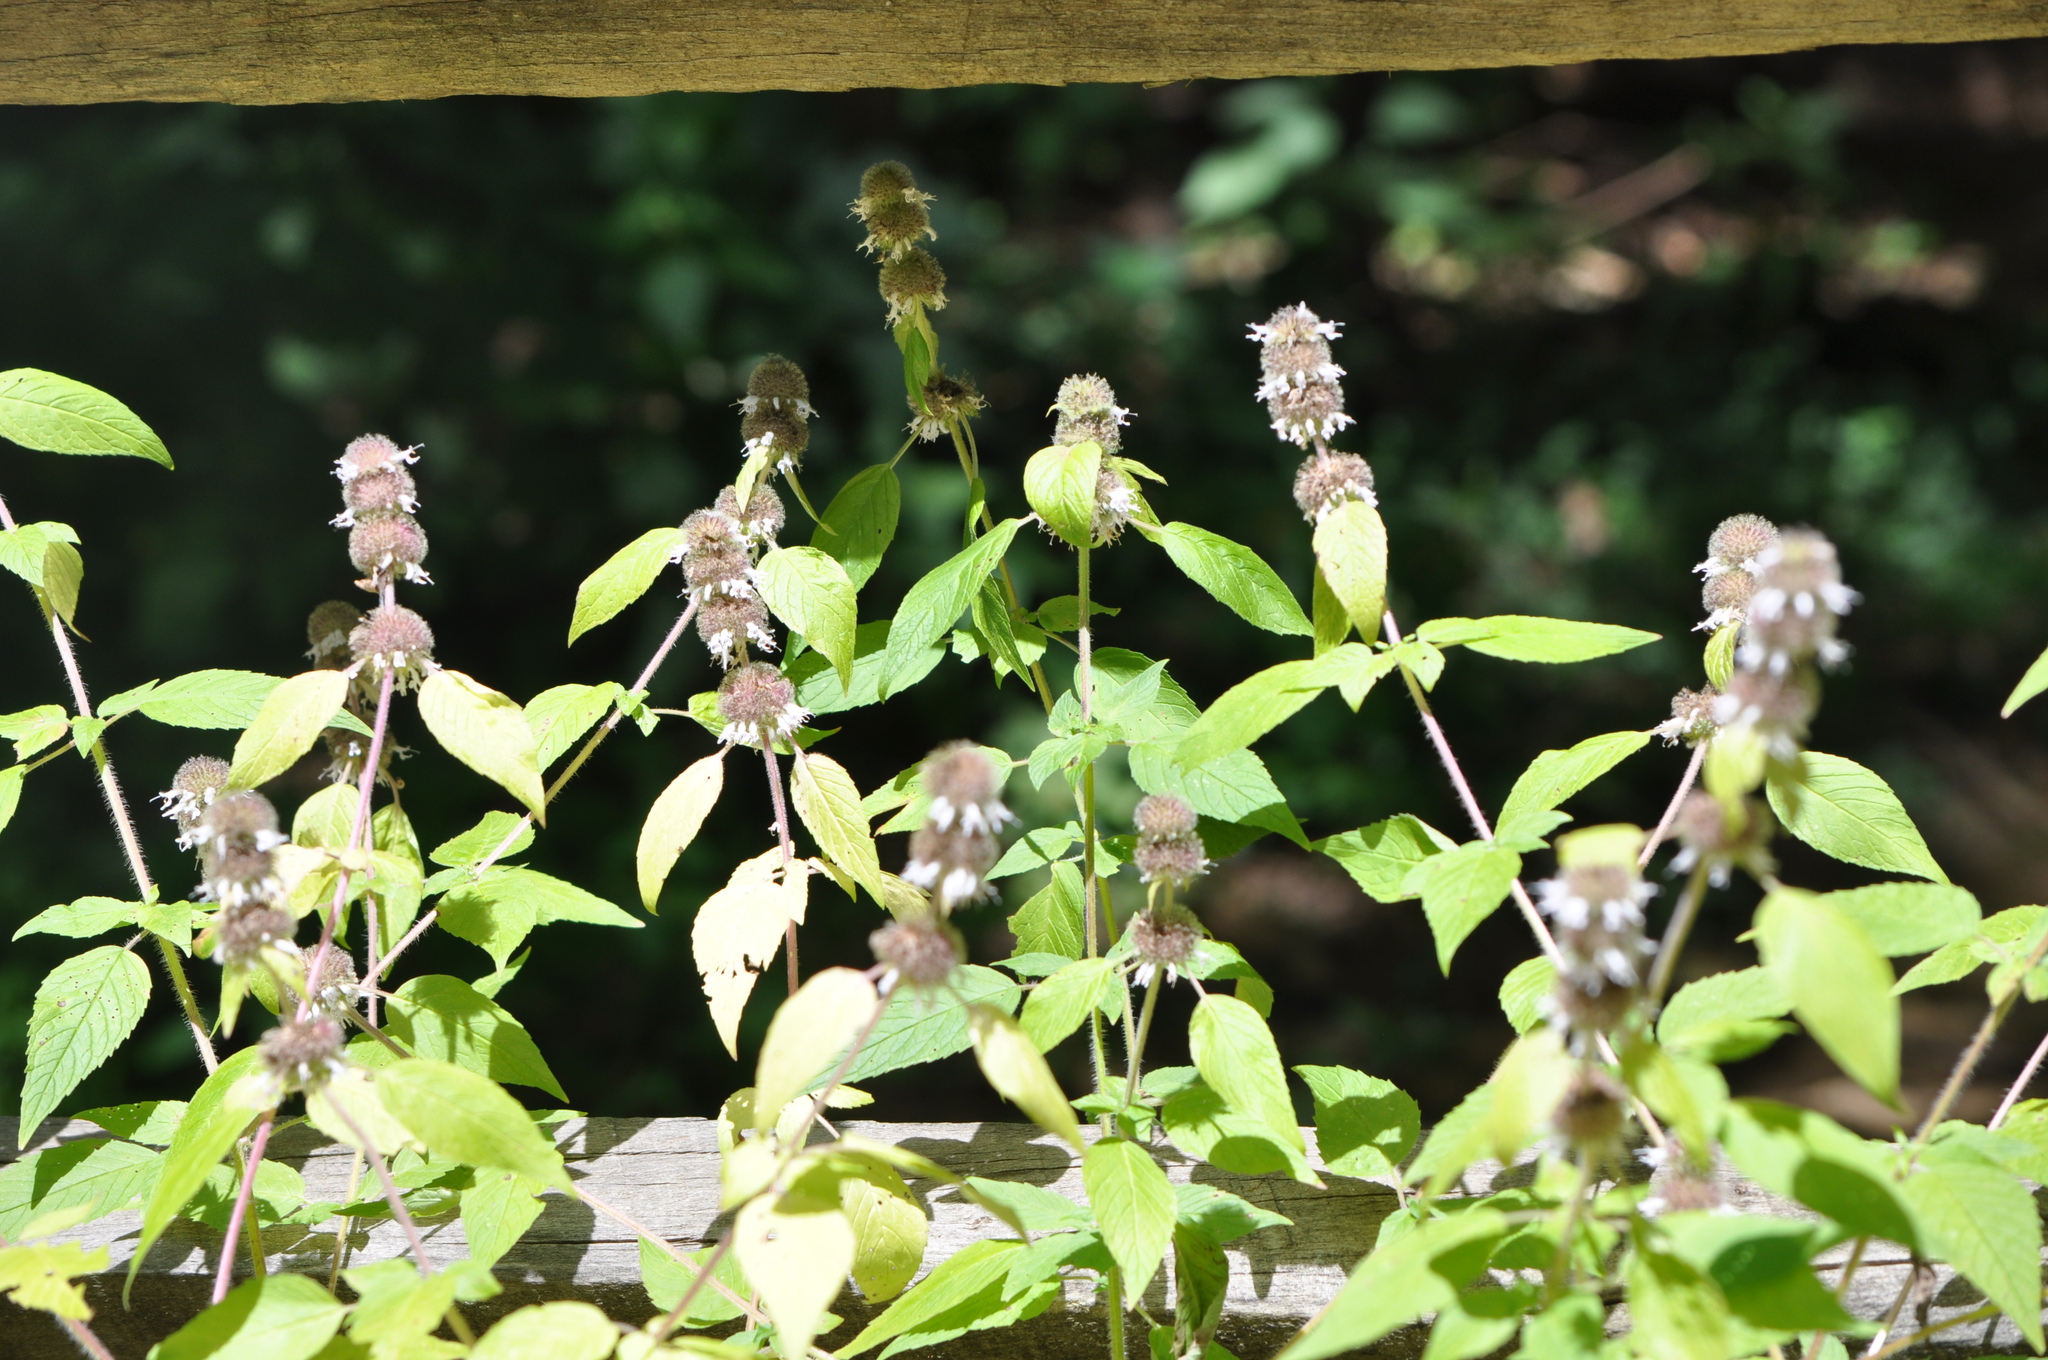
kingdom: Plantae
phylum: Tracheophyta
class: Magnoliopsida
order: Lamiales
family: Lamiaceae
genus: Blephilia
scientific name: Blephilia hirsuta
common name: Hairy blephilia
